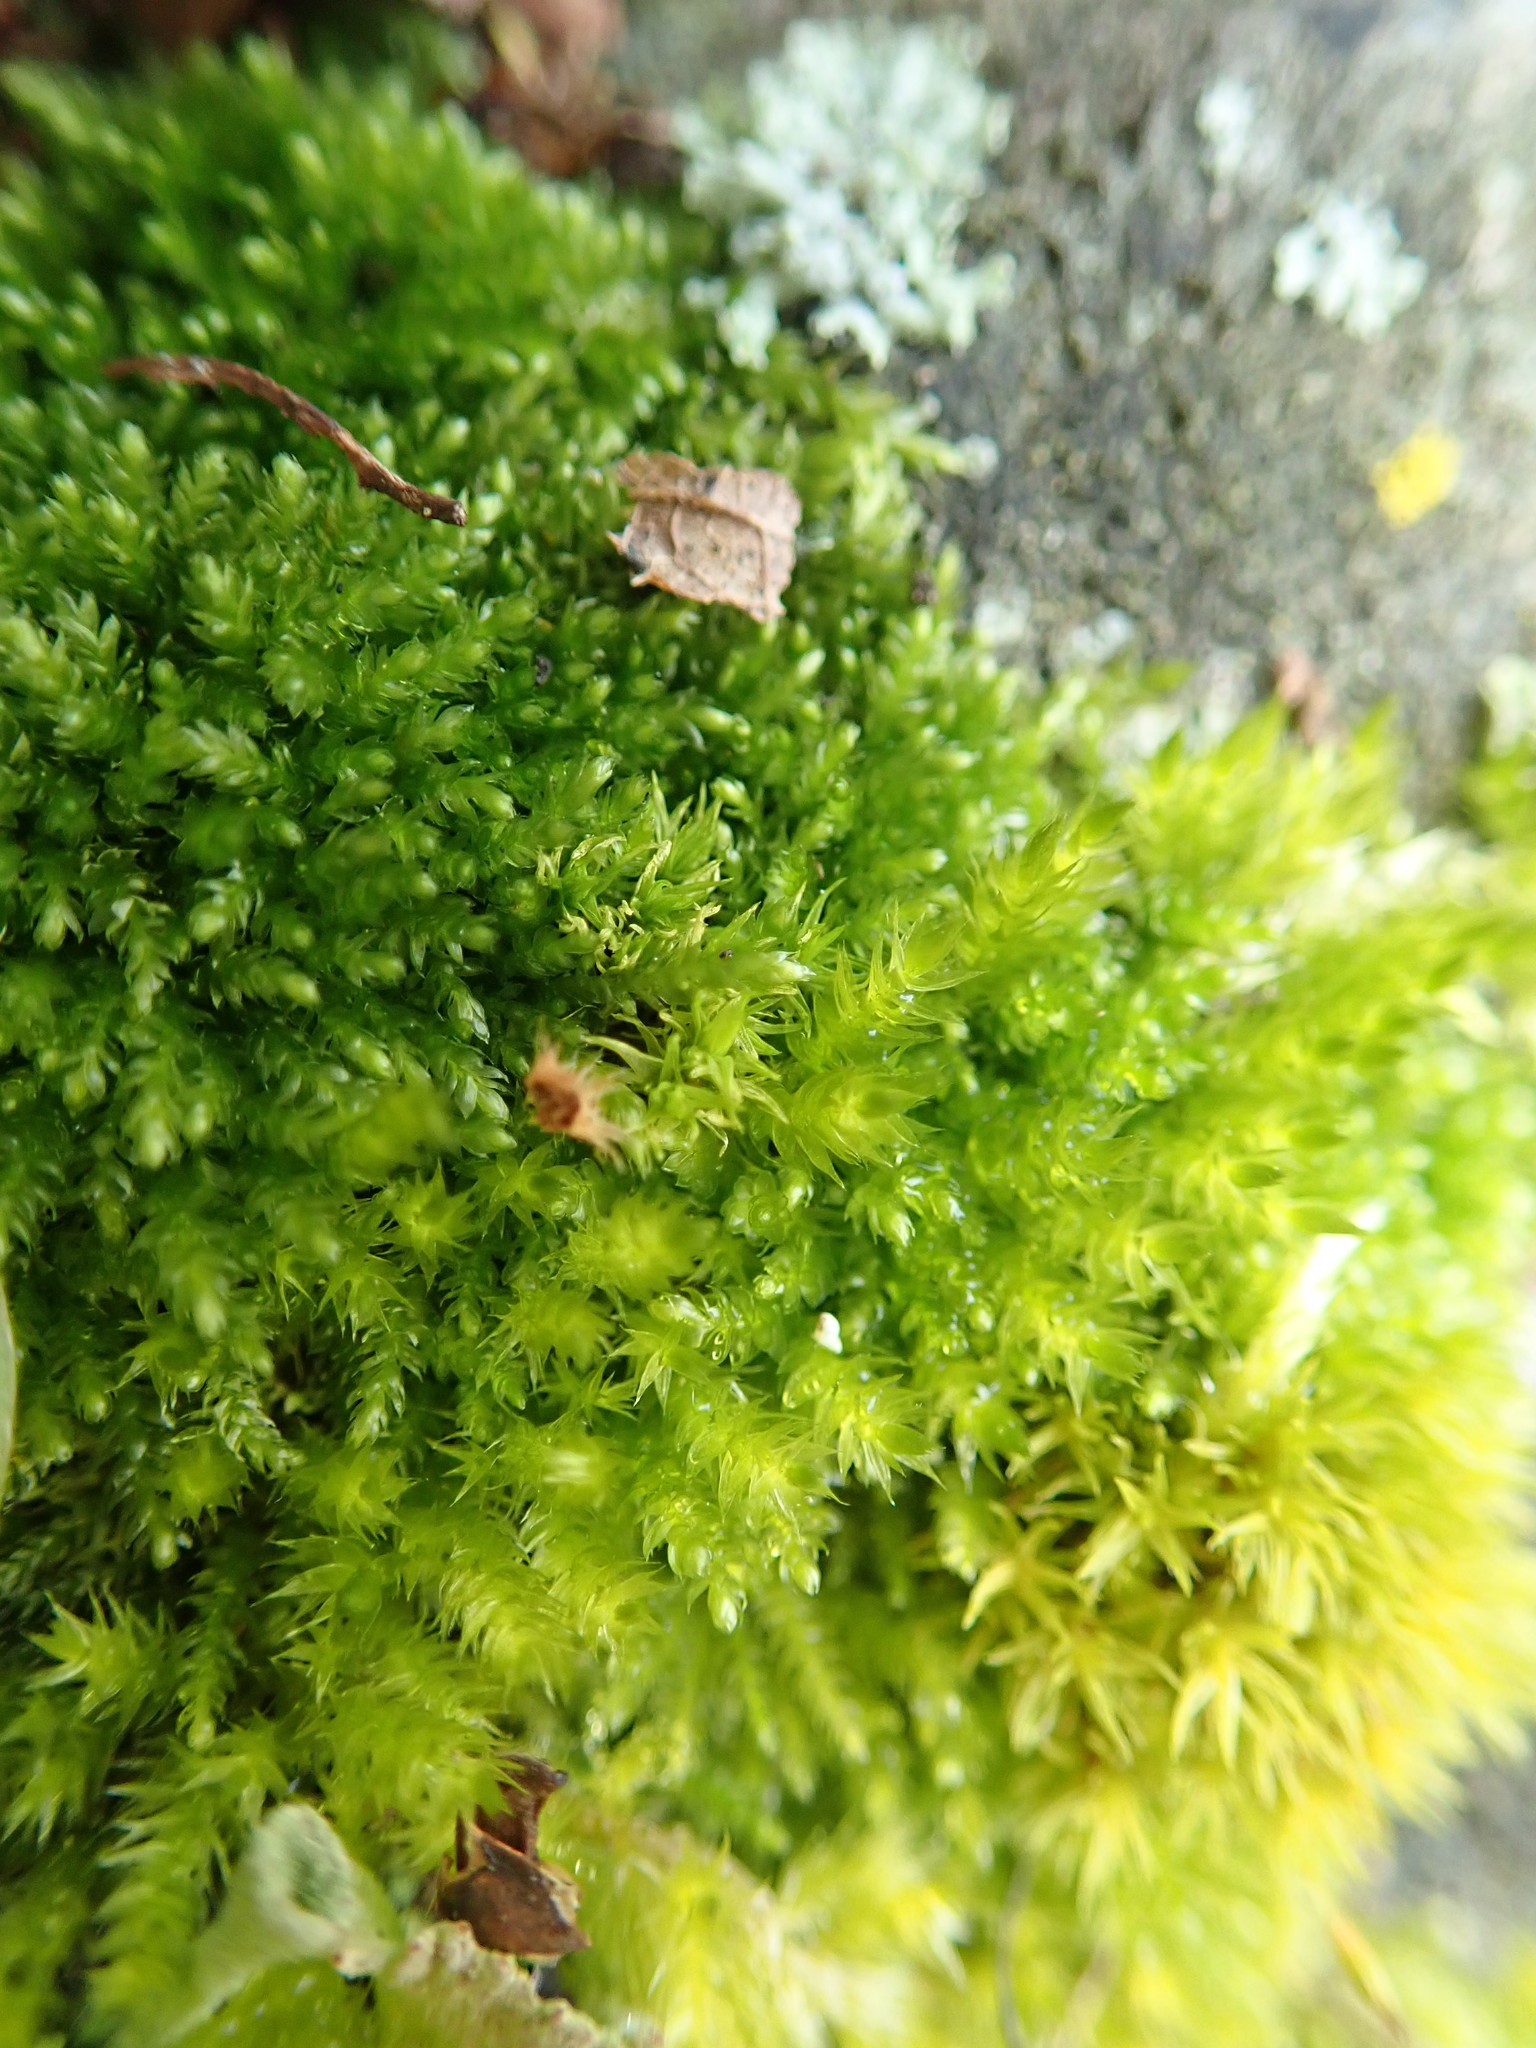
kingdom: Plantae
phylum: Bryophyta
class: Bryopsida
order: Hypnales
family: Brachytheciaceae
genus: Scleropodium
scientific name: Scleropodium touretii
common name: Glass-wort feather-moss
